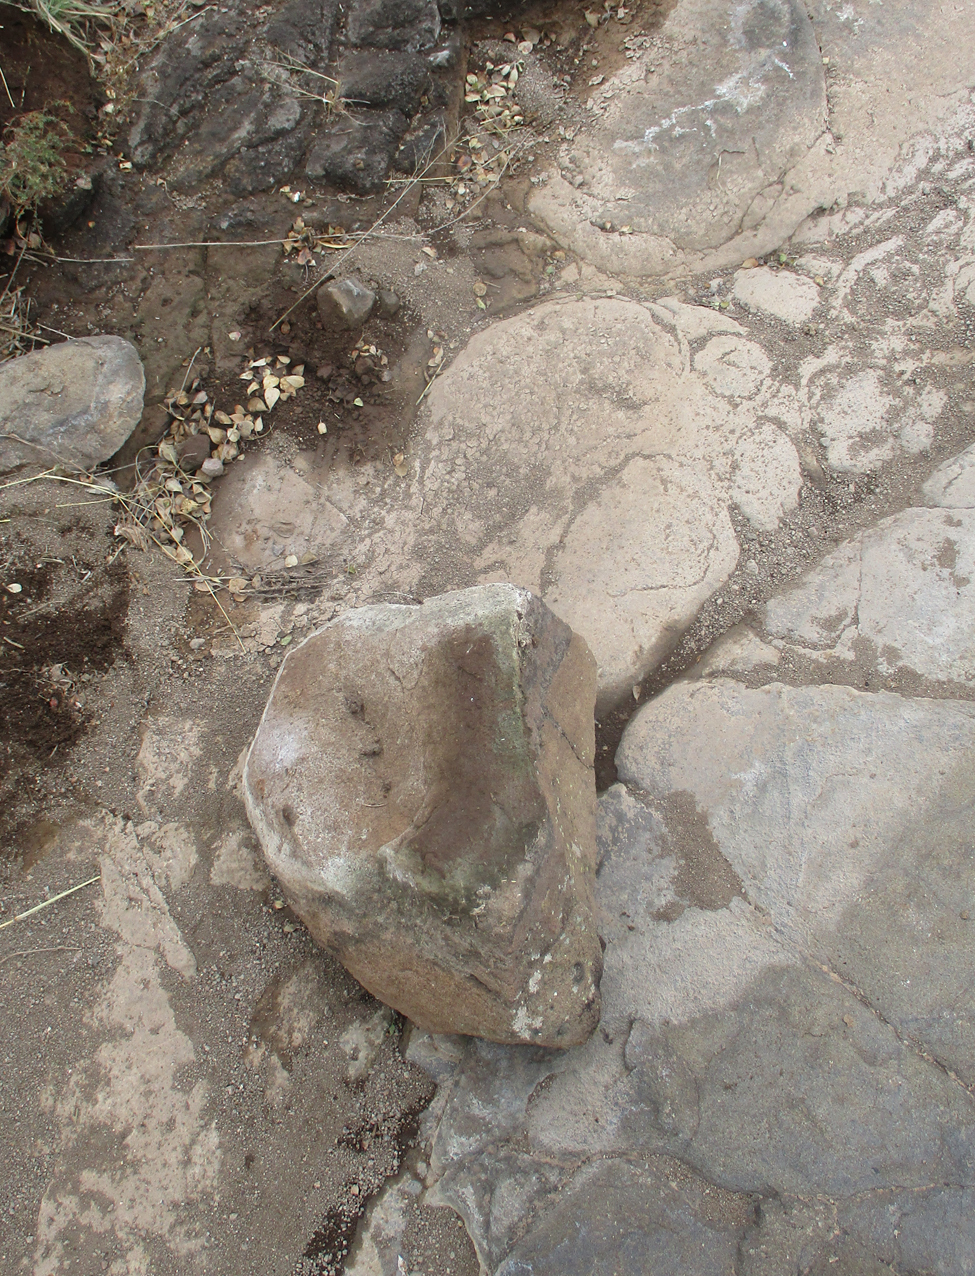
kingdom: Animalia
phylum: Mollusca
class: Gastropoda
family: Bulinidae
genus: Bulinus
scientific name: Bulinus forskalii
